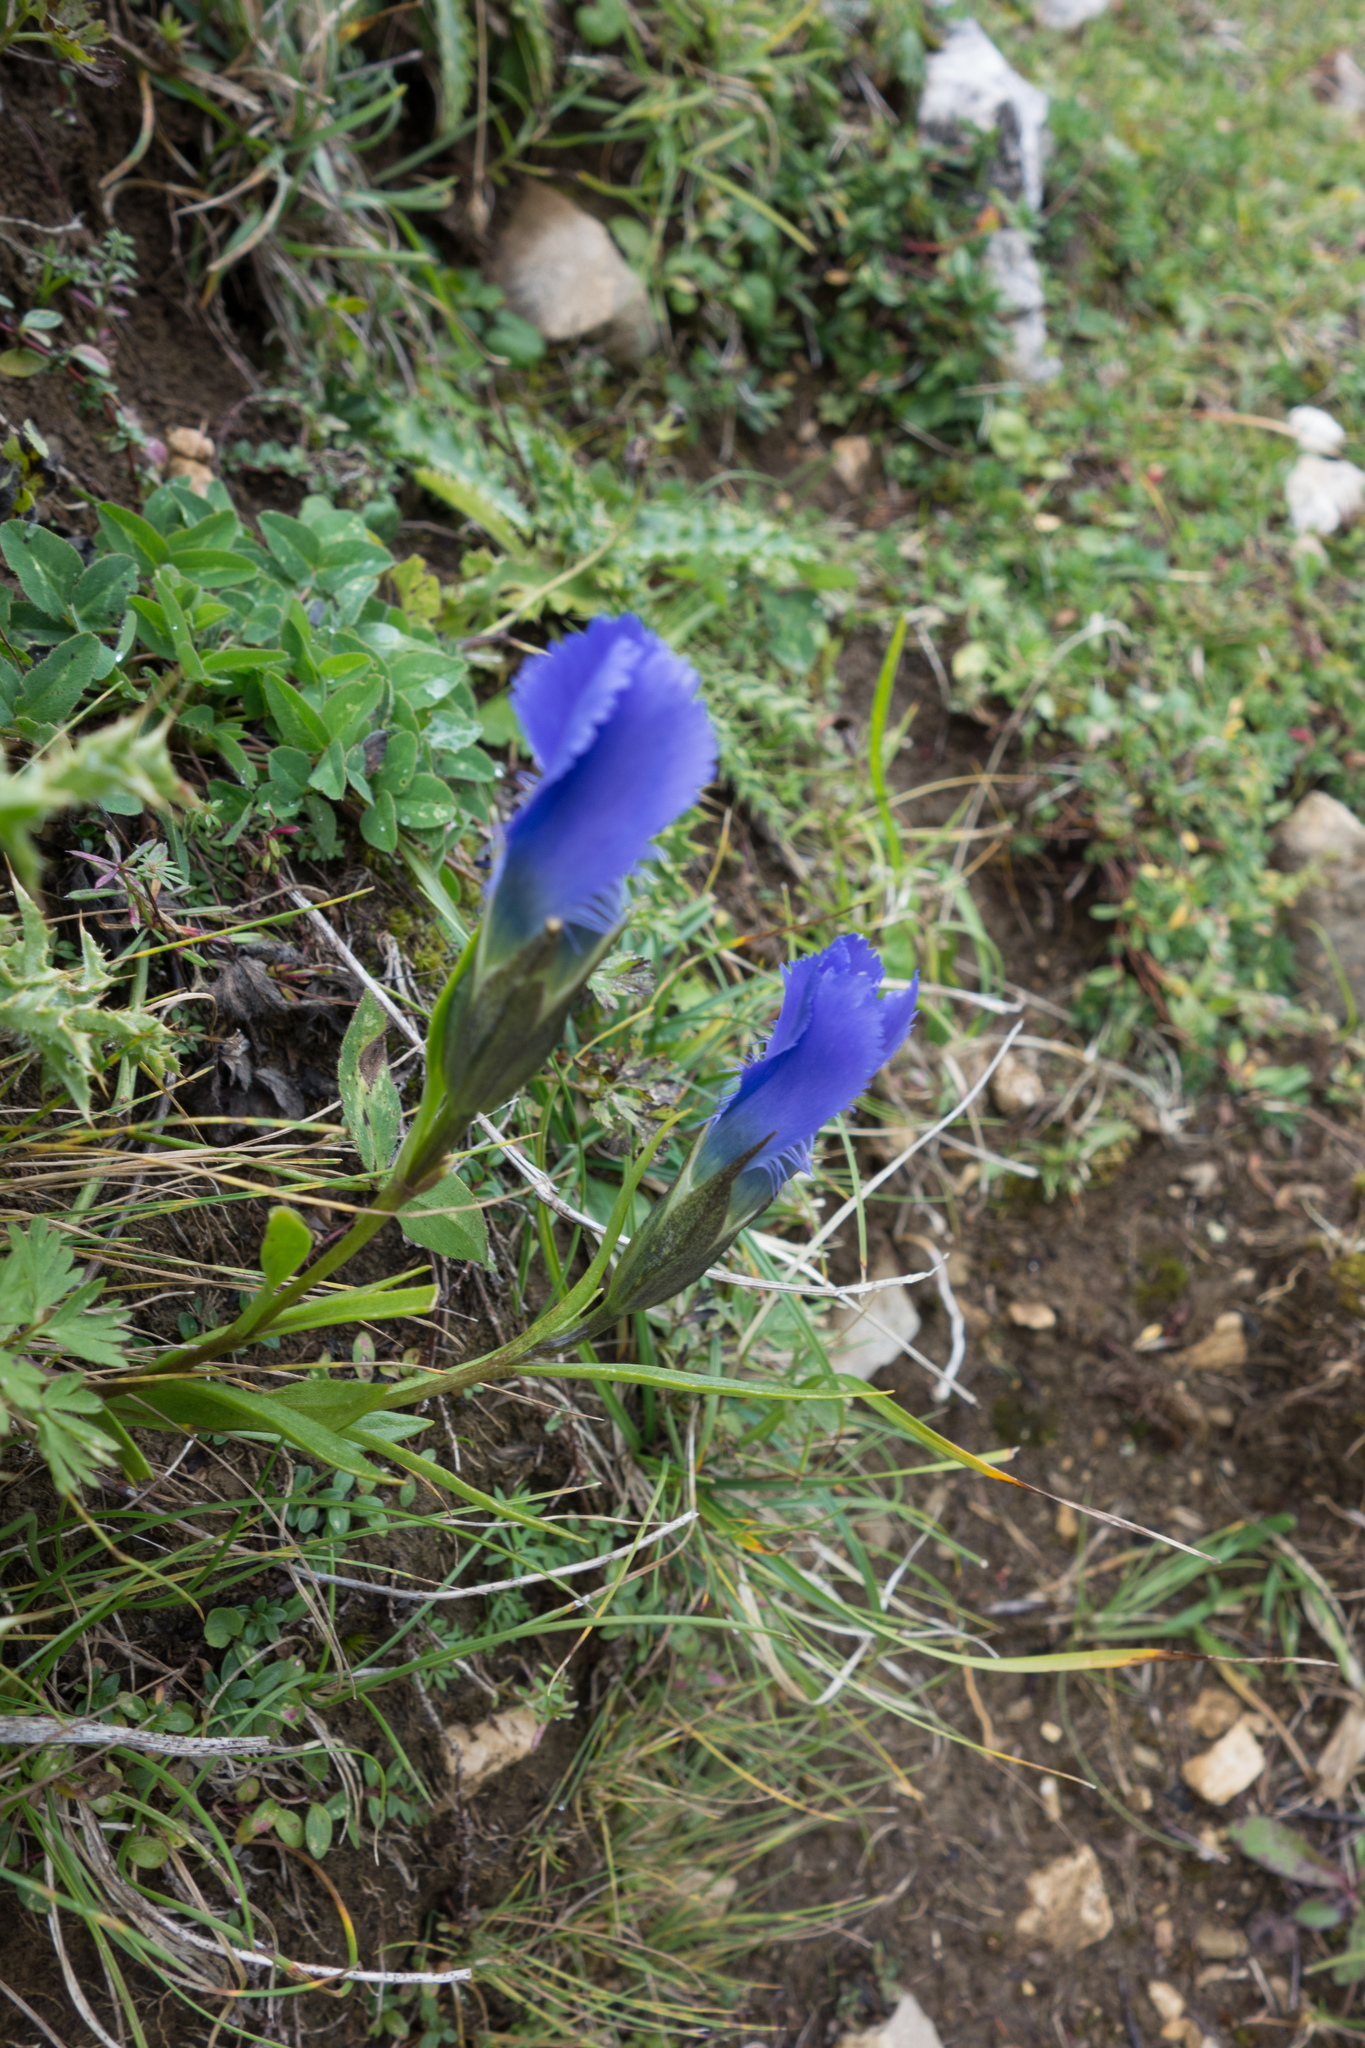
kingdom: Plantae
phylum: Tracheophyta
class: Magnoliopsida
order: Gentianales
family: Gentianaceae
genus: Gentianopsis
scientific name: Gentianopsis ciliata
